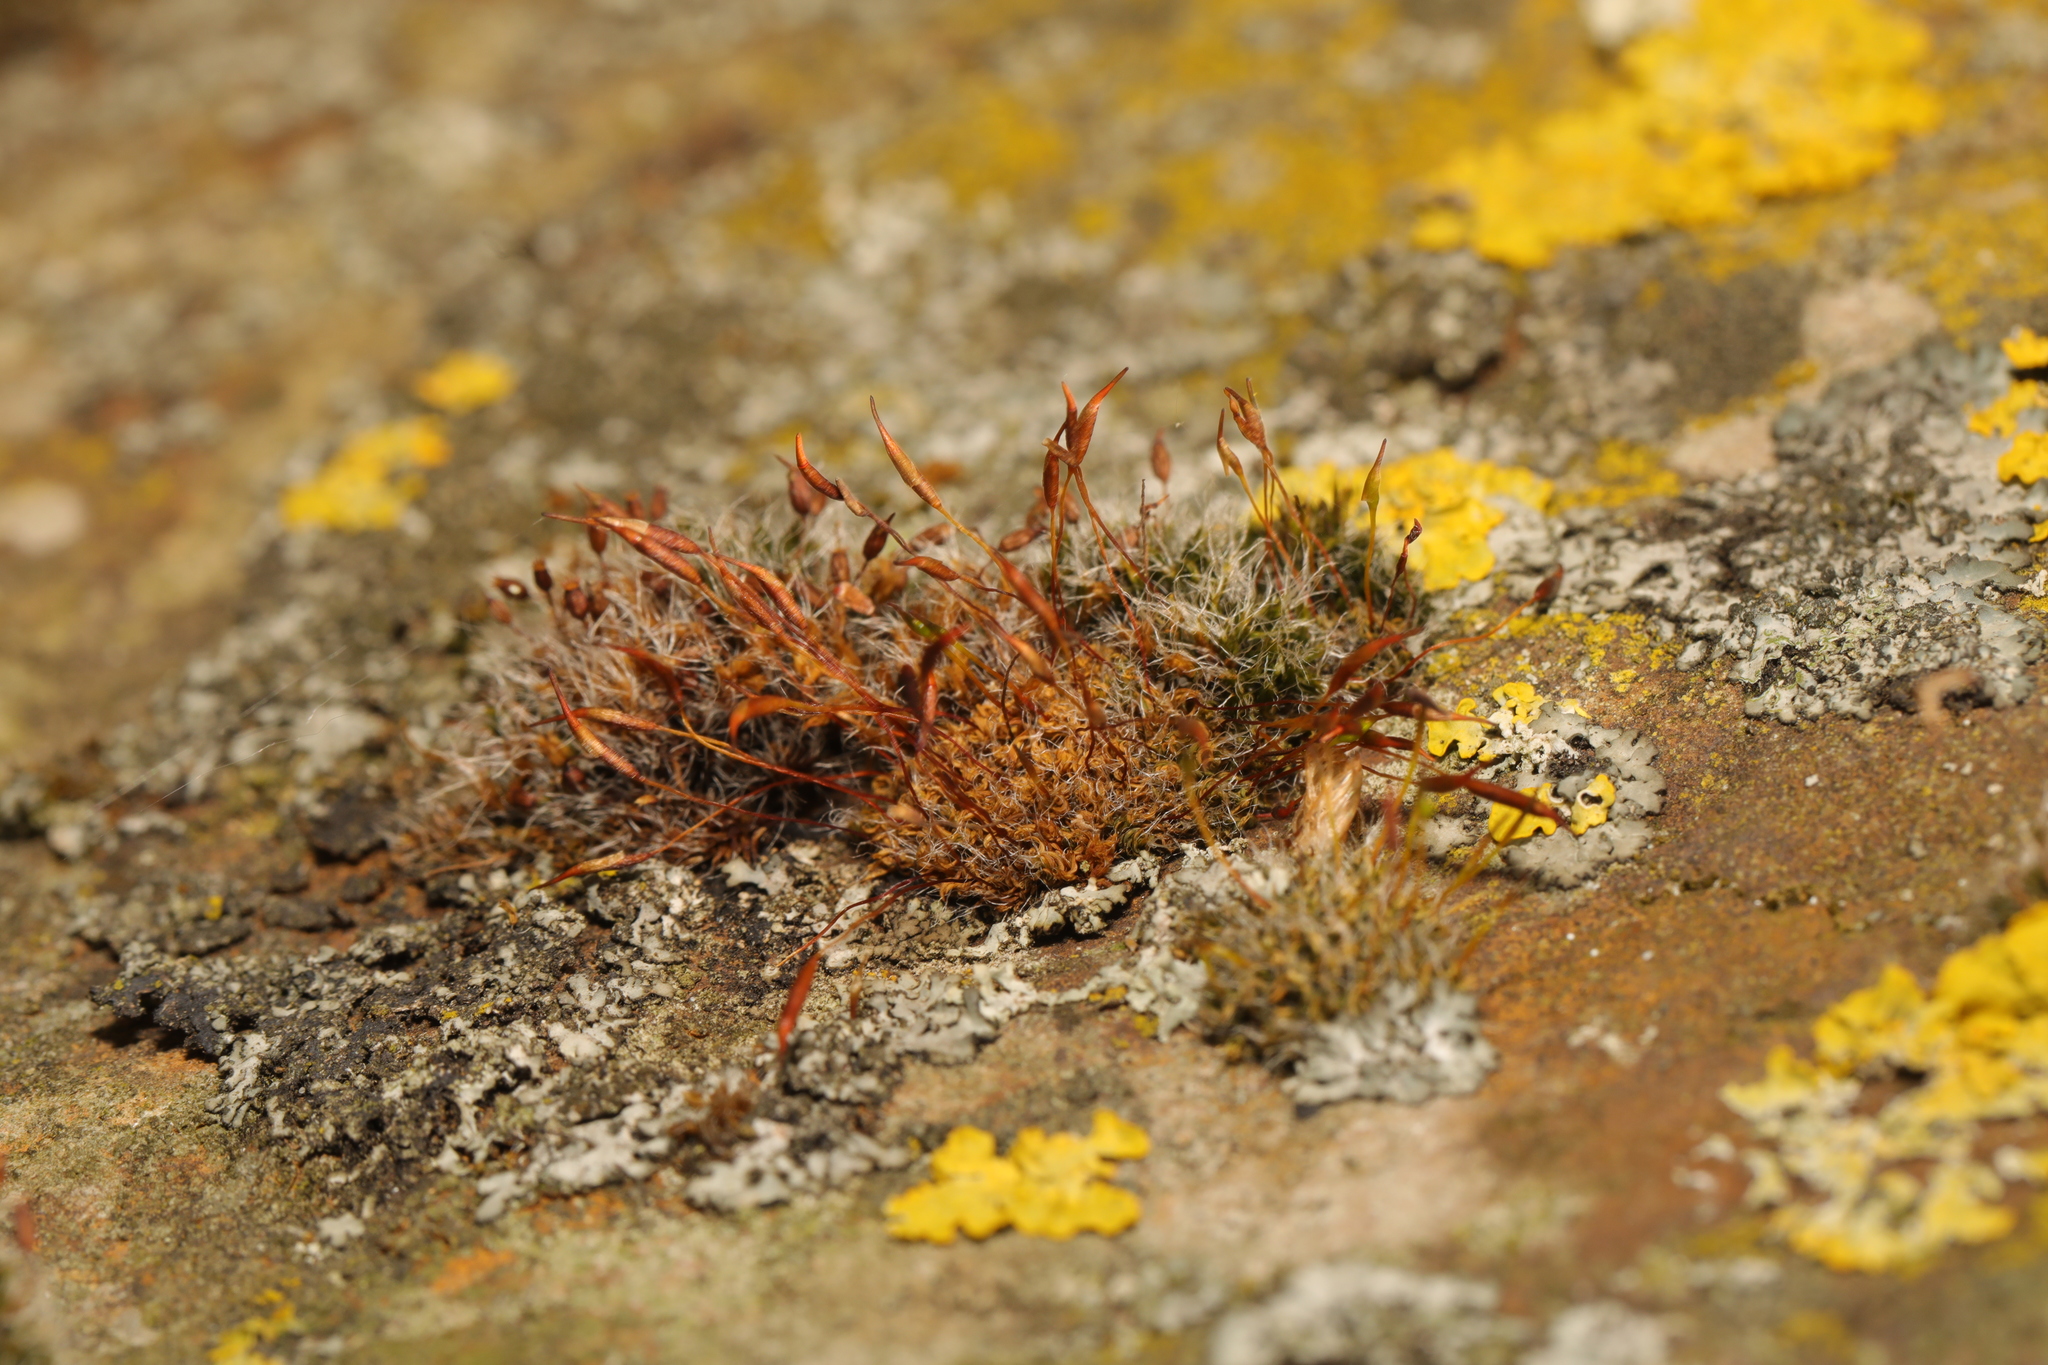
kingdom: Plantae
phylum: Bryophyta
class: Bryopsida
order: Pottiales
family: Pottiaceae
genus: Tortula
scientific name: Tortula muralis
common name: Wall screw-moss
